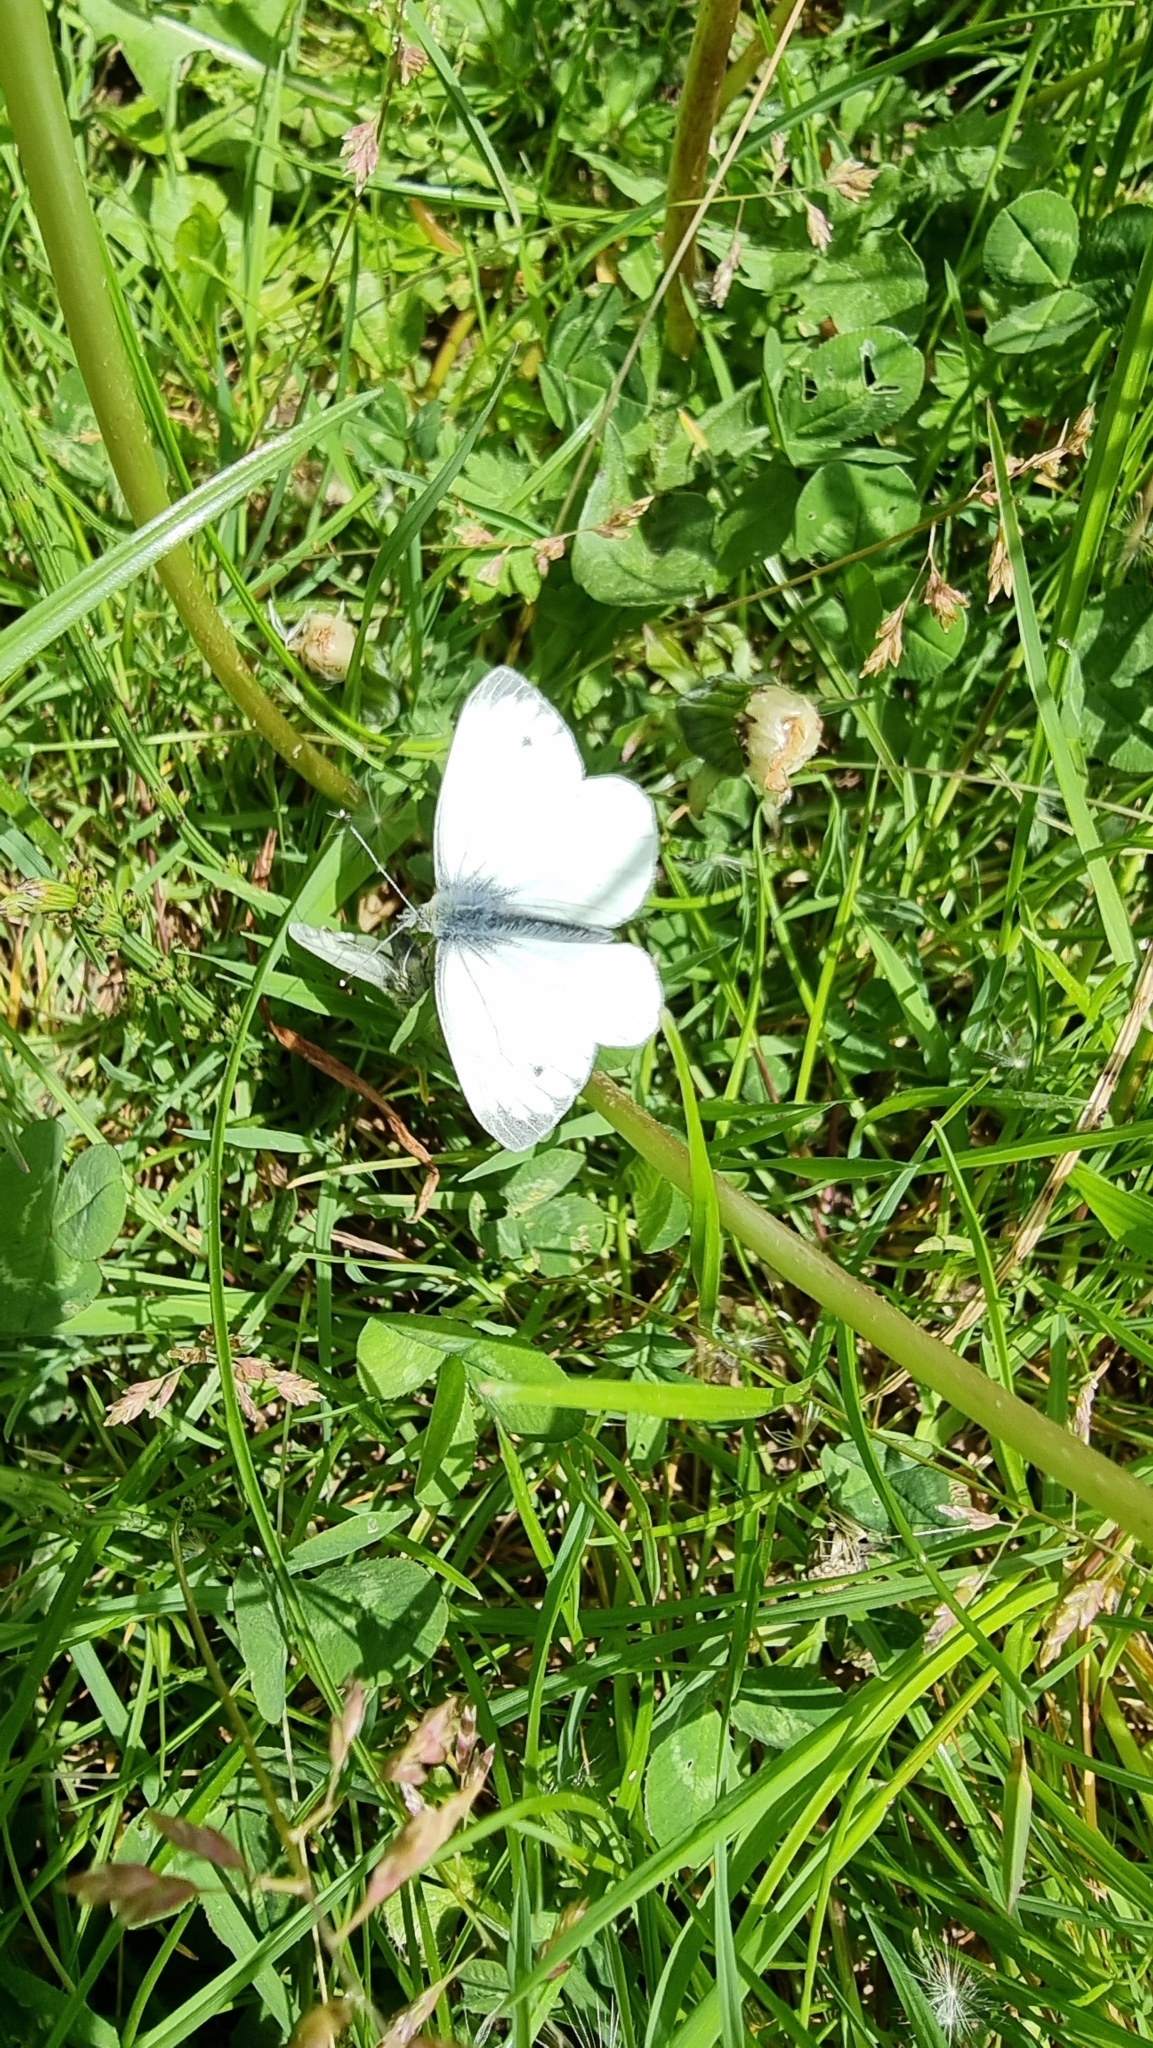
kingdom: Animalia
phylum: Arthropoda
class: Insecta
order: Lepidoptera
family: Pieridae
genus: Pieris
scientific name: Pieris napi
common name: Green-veined white
